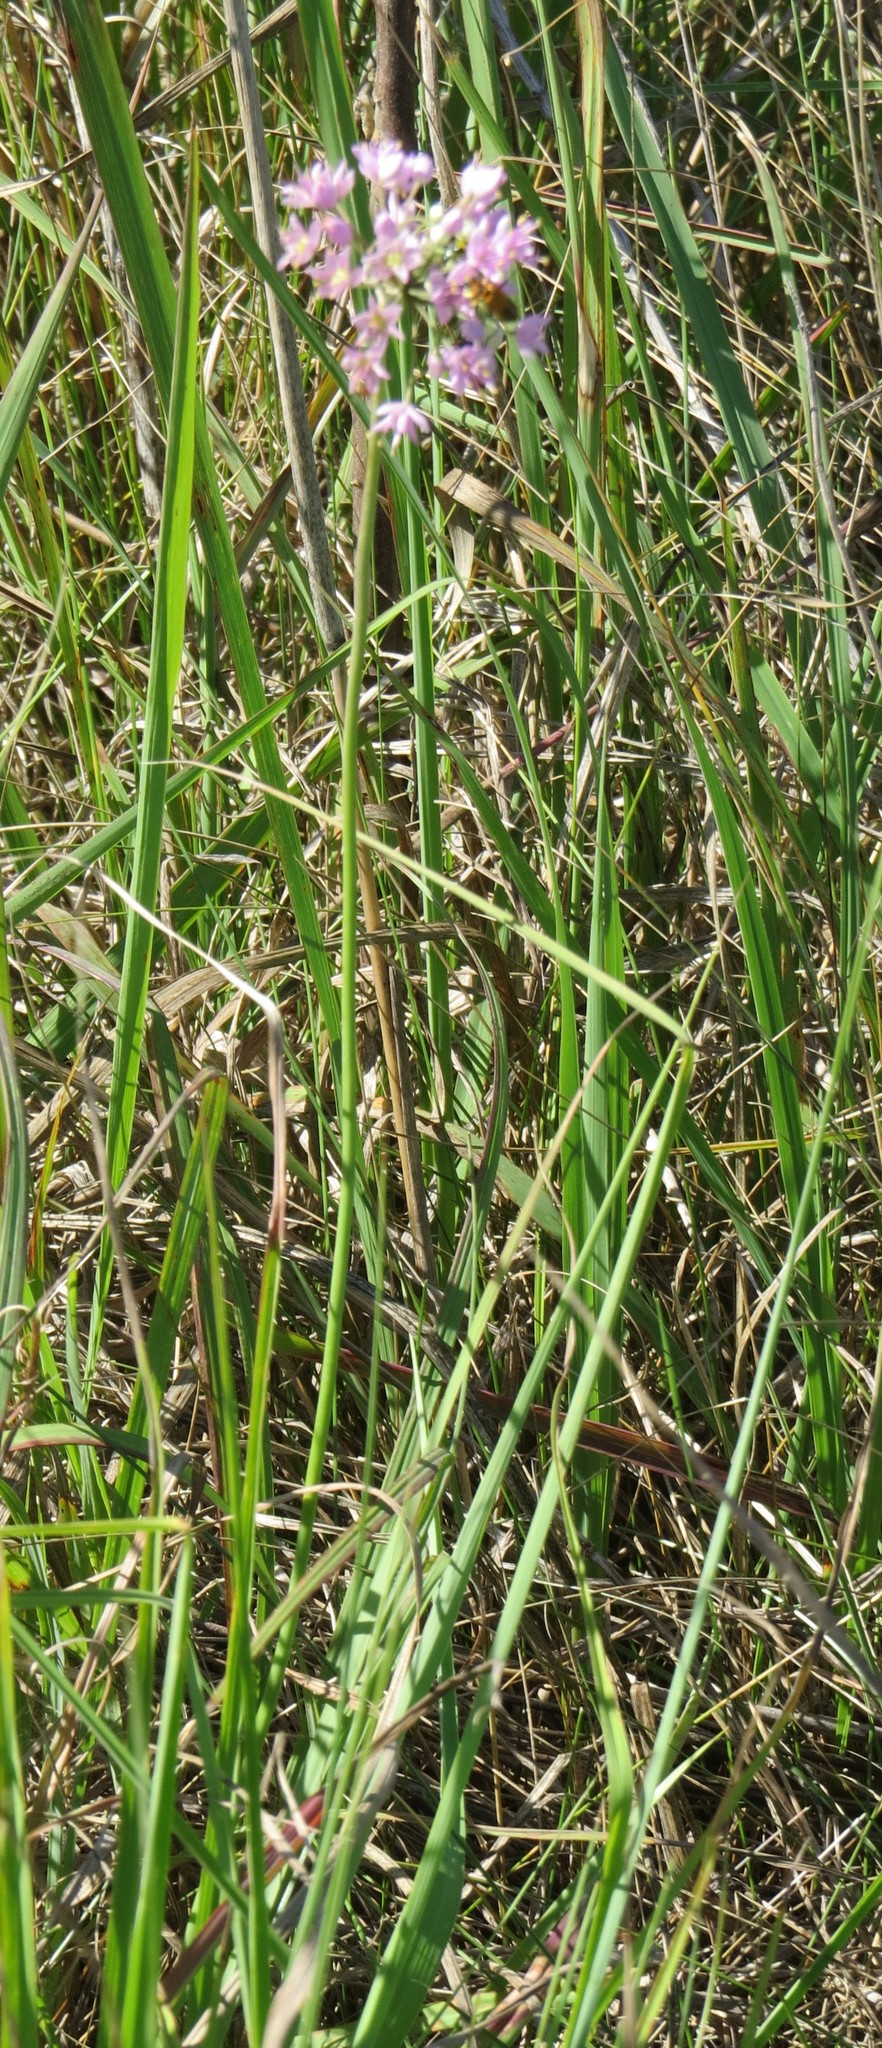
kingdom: Plantae
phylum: Tracheophyta
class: Liliopsida
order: Asparagales
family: Amaryllidaceae
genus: Allium
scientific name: Allium stellatum
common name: Autumn onion
